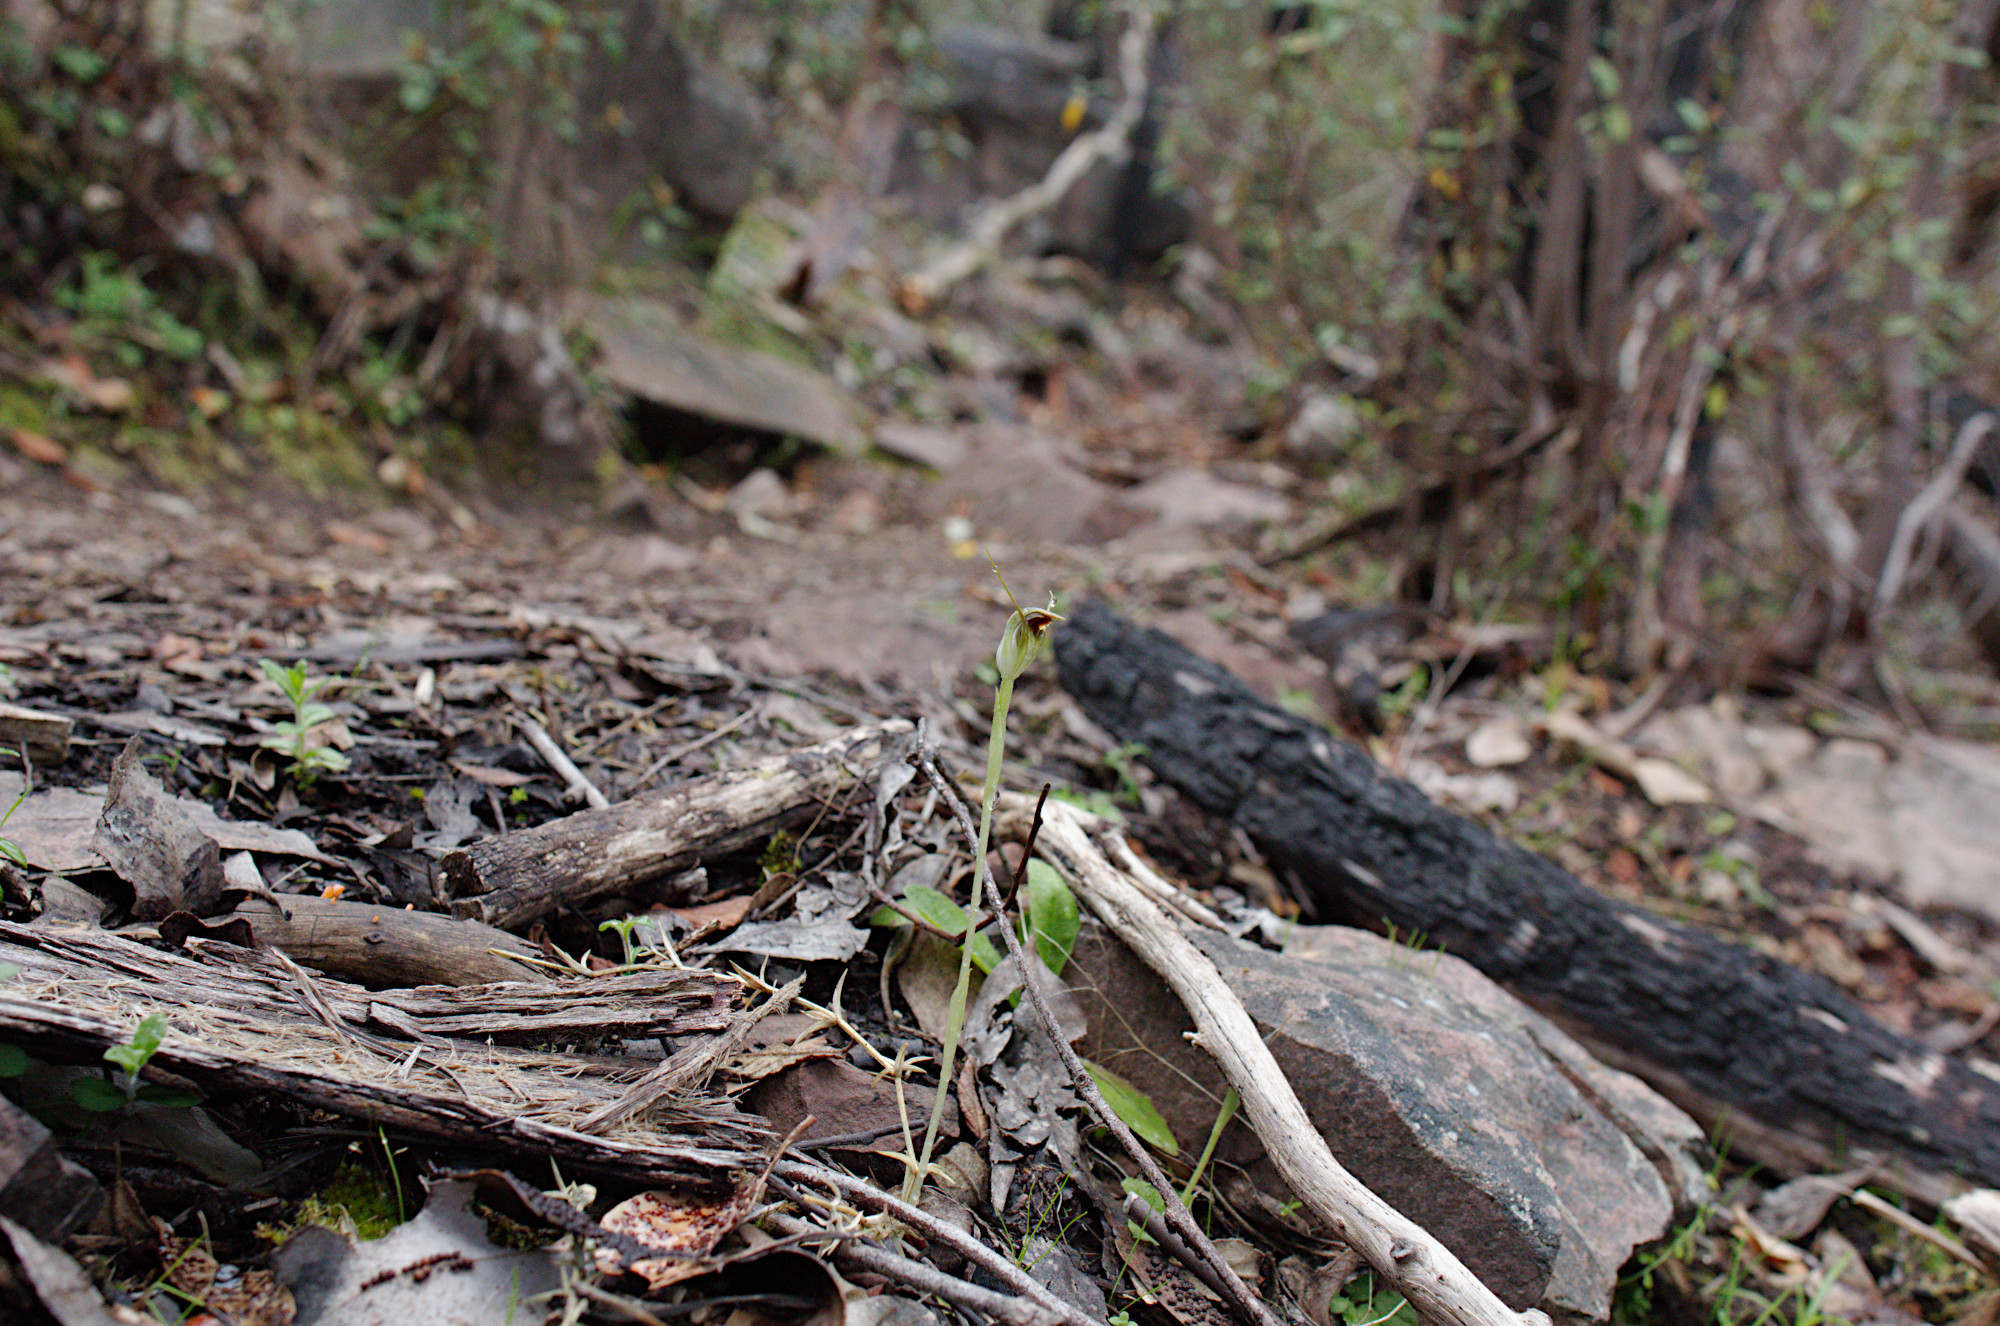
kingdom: Plantae
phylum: Tracheophyta
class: Liliopsida
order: Asparagales
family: Orchidaceae
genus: Pterostylis
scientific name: Pterostylis pedunculata
